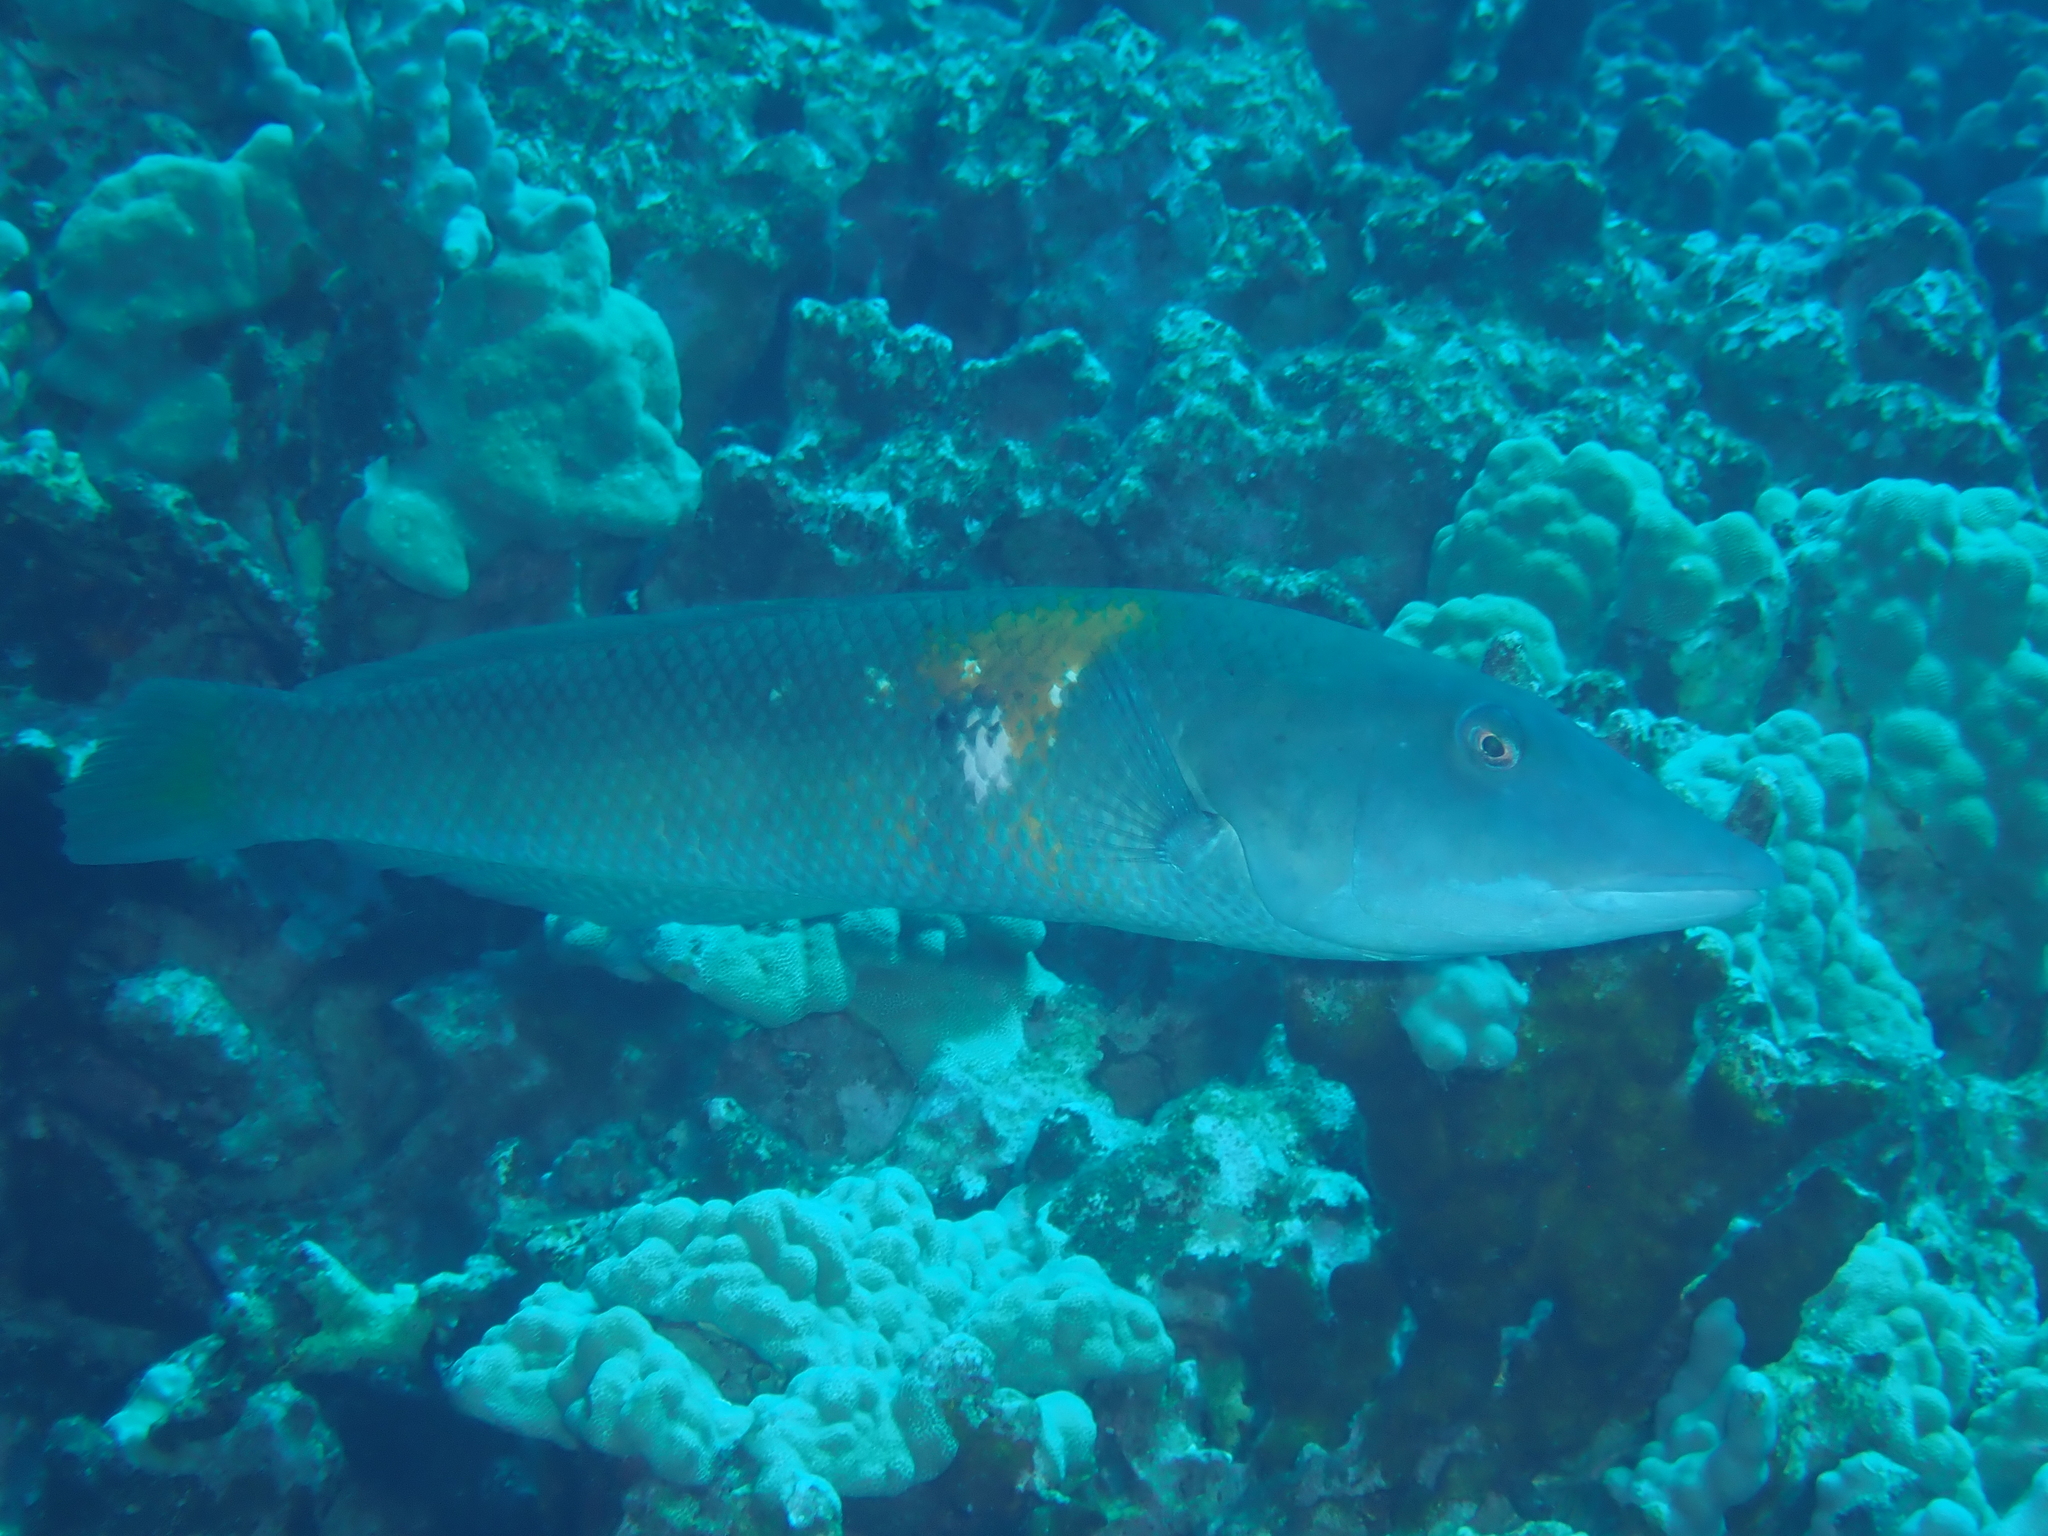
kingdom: Animalia
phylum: Chordata
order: Perciformes
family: Labridae
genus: Cheilio
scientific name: Cheilio inermis
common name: Cigar wrasse
